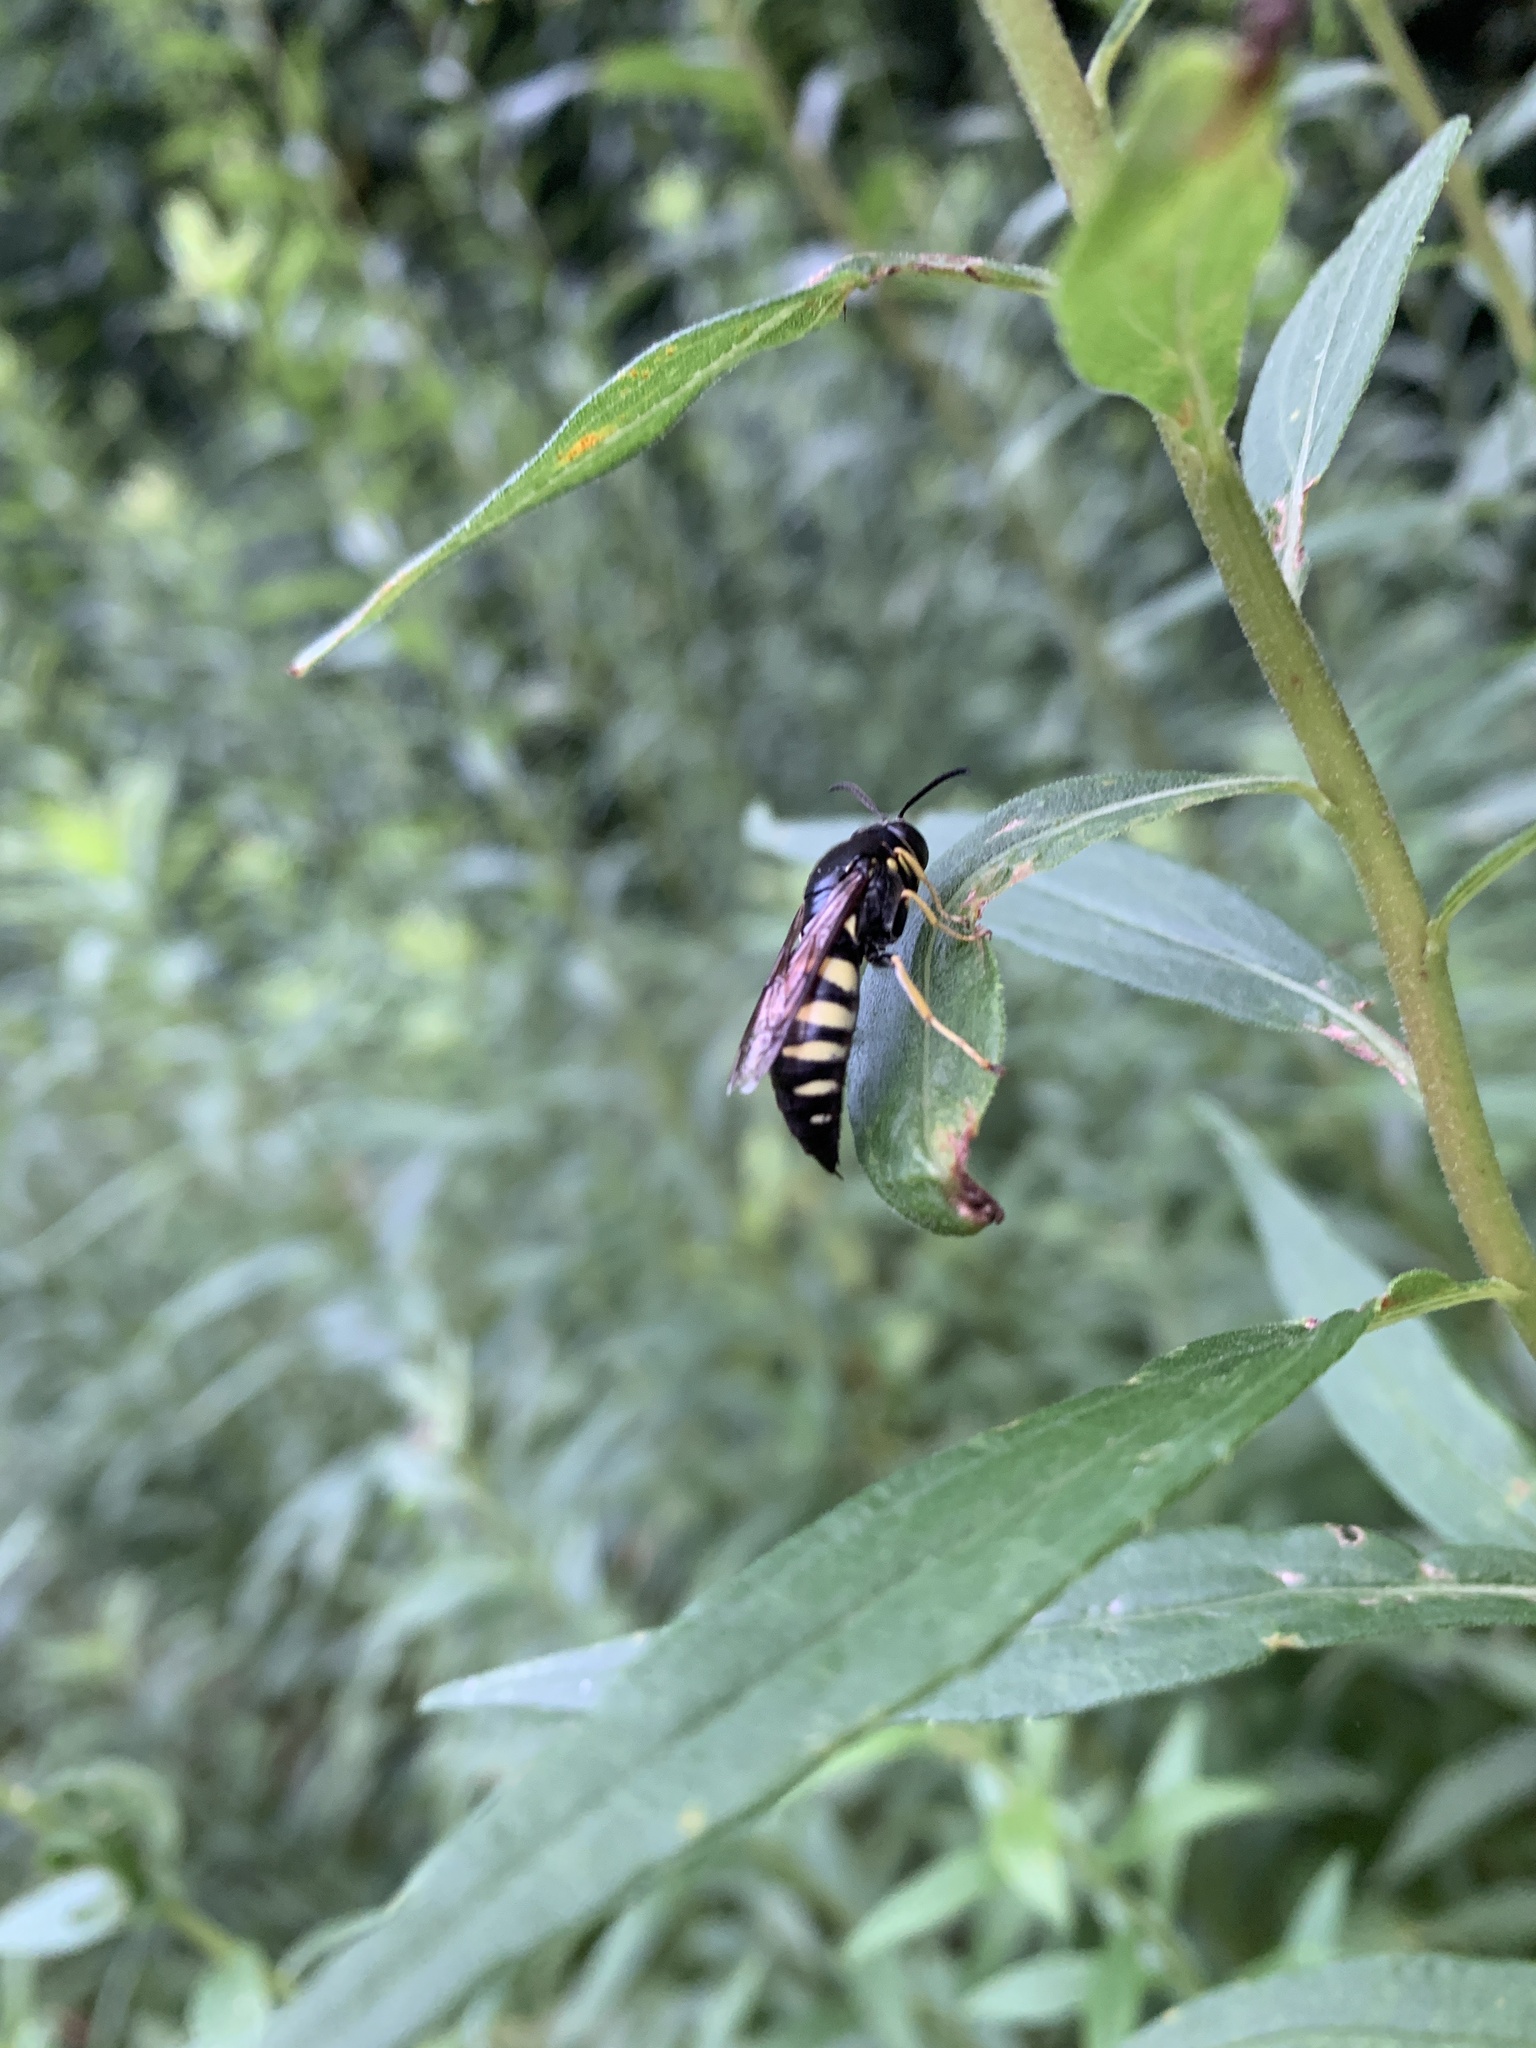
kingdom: Animalia
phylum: Arthropoda
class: Insecta
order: Hymenoptera
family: Crabronidae
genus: Bicyrtes
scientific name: Bicyrtes quadrifasciatus
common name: Four-banded stink bug hunter wasp
